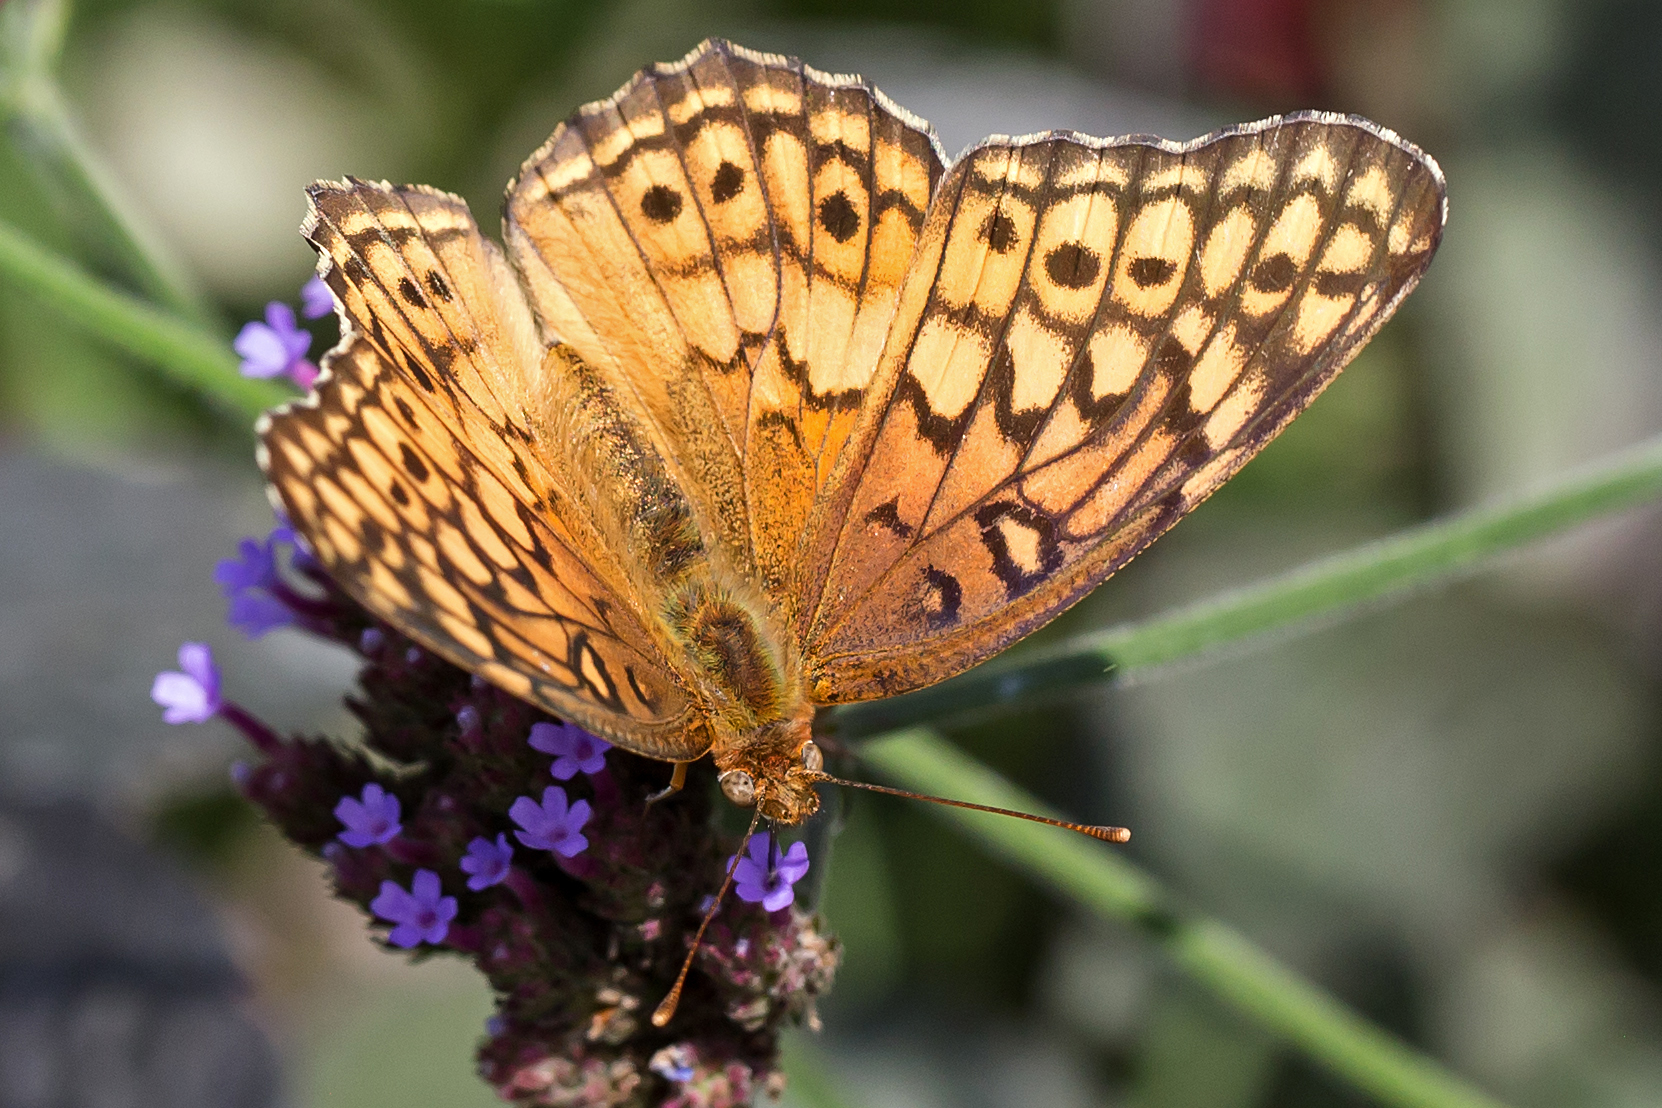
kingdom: Animalia
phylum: Arthropoda
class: Insecta
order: Lepidoptera
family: Nymphalidae
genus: Euptoieta
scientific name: Euptoieta claudia
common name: Variegated fritillary
